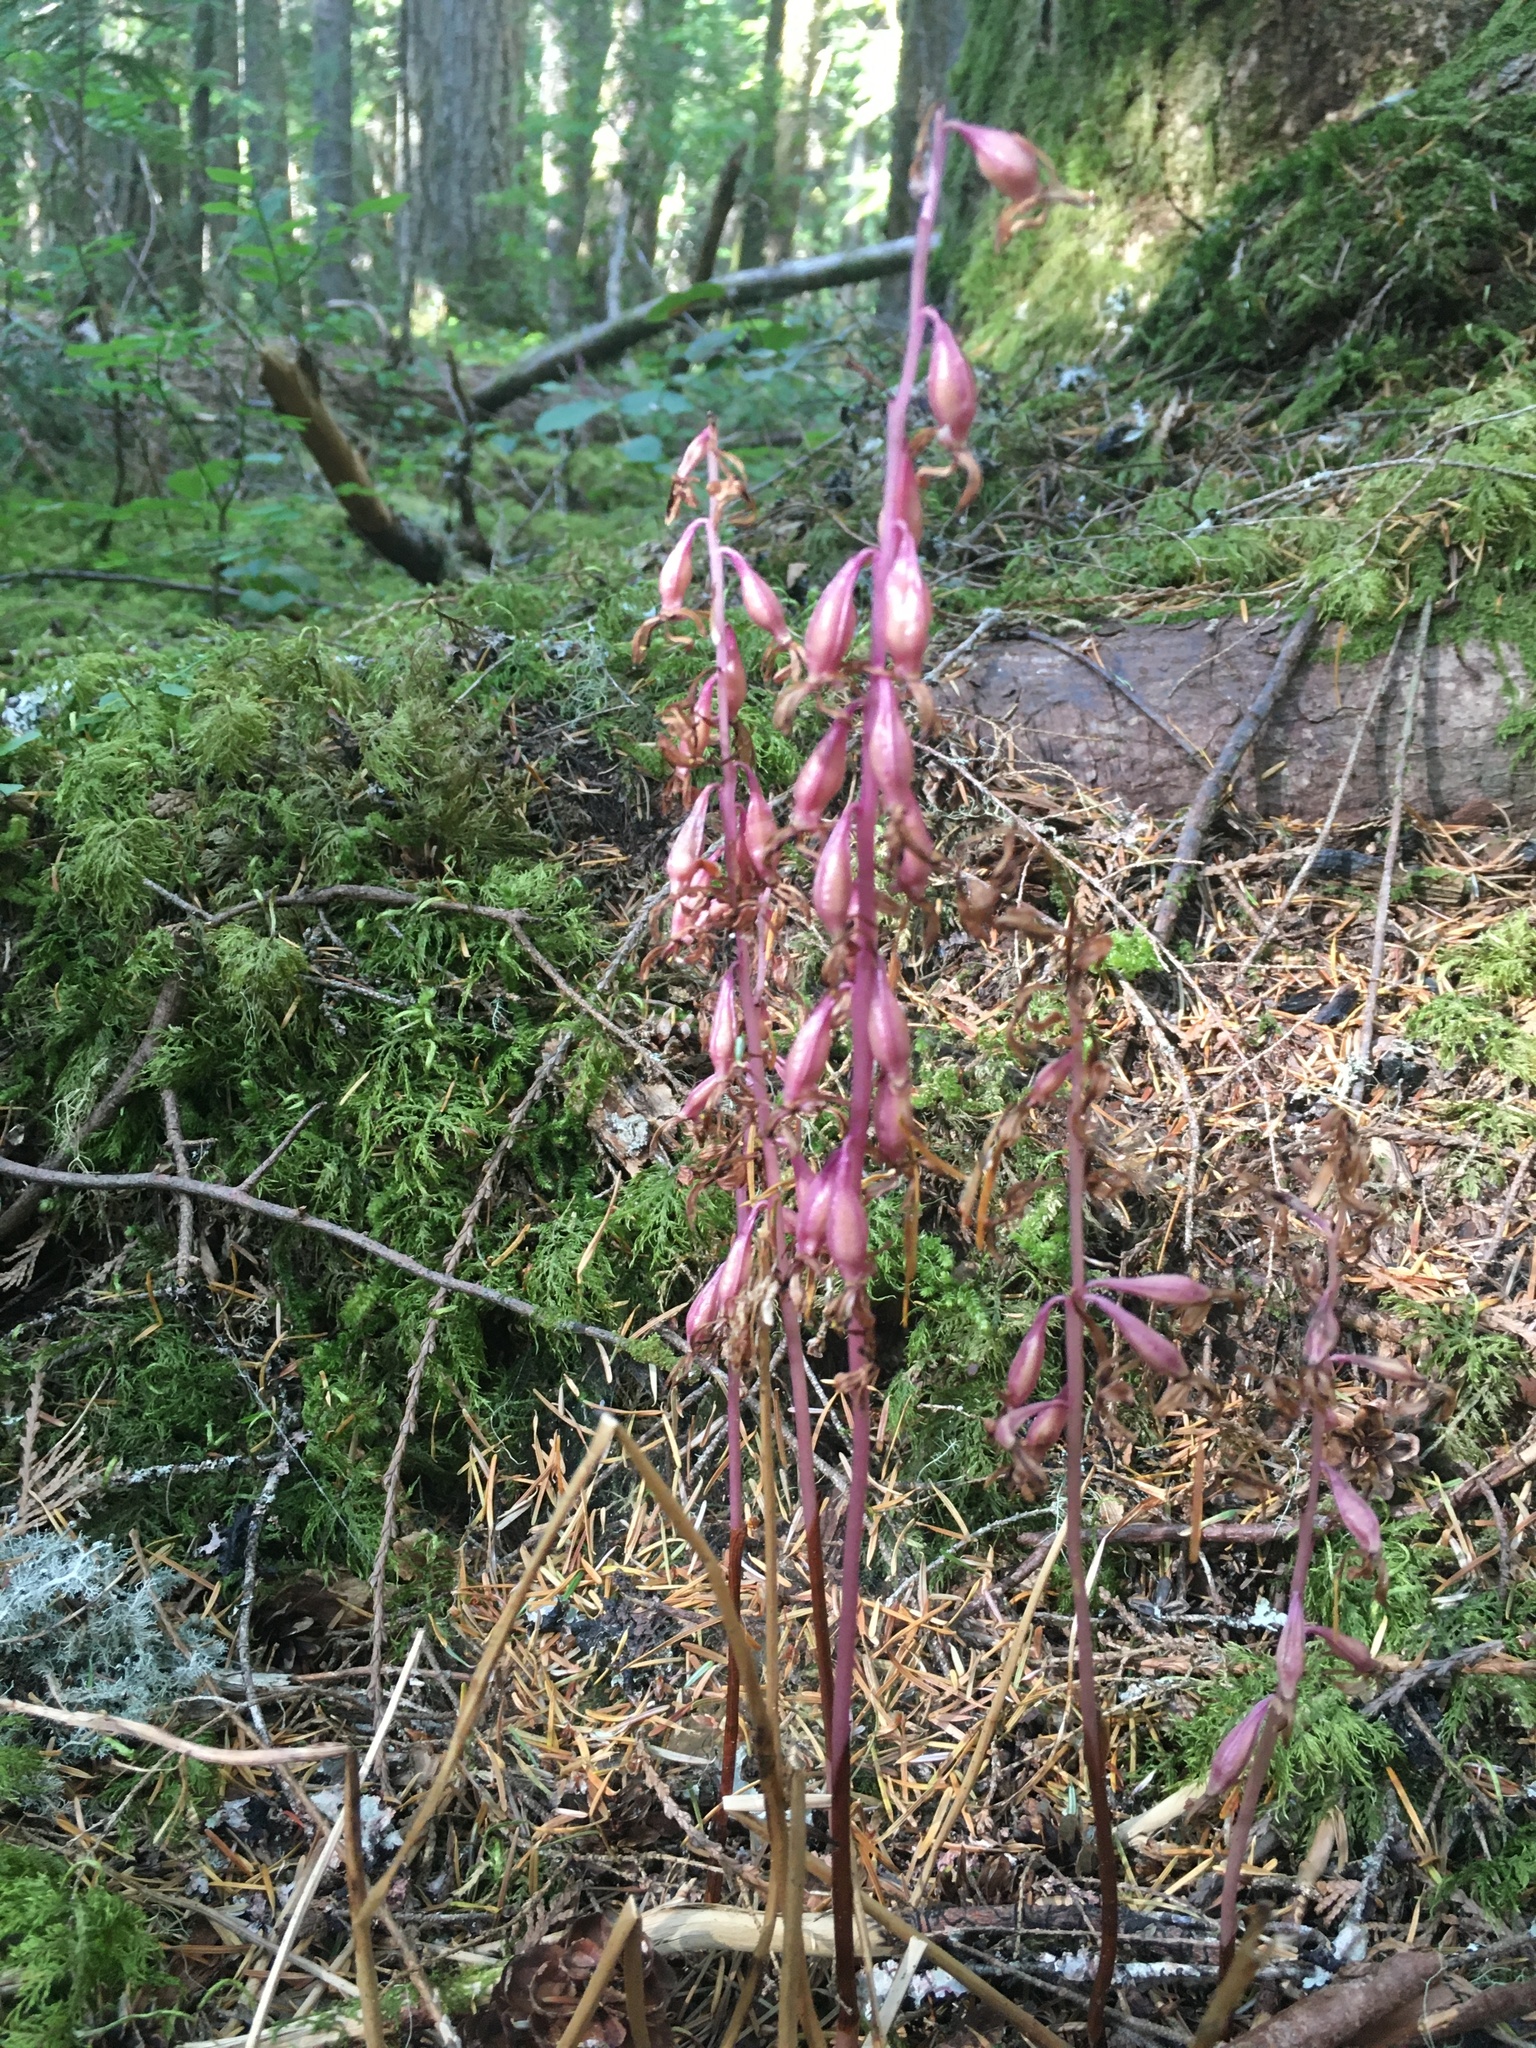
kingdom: Plantae
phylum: Tracheophyta
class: Liliopsida
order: Asparagales
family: Orchidaceae
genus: Corallorhiza
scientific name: Corallorhiza mertensiana
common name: Pacific coralroot
